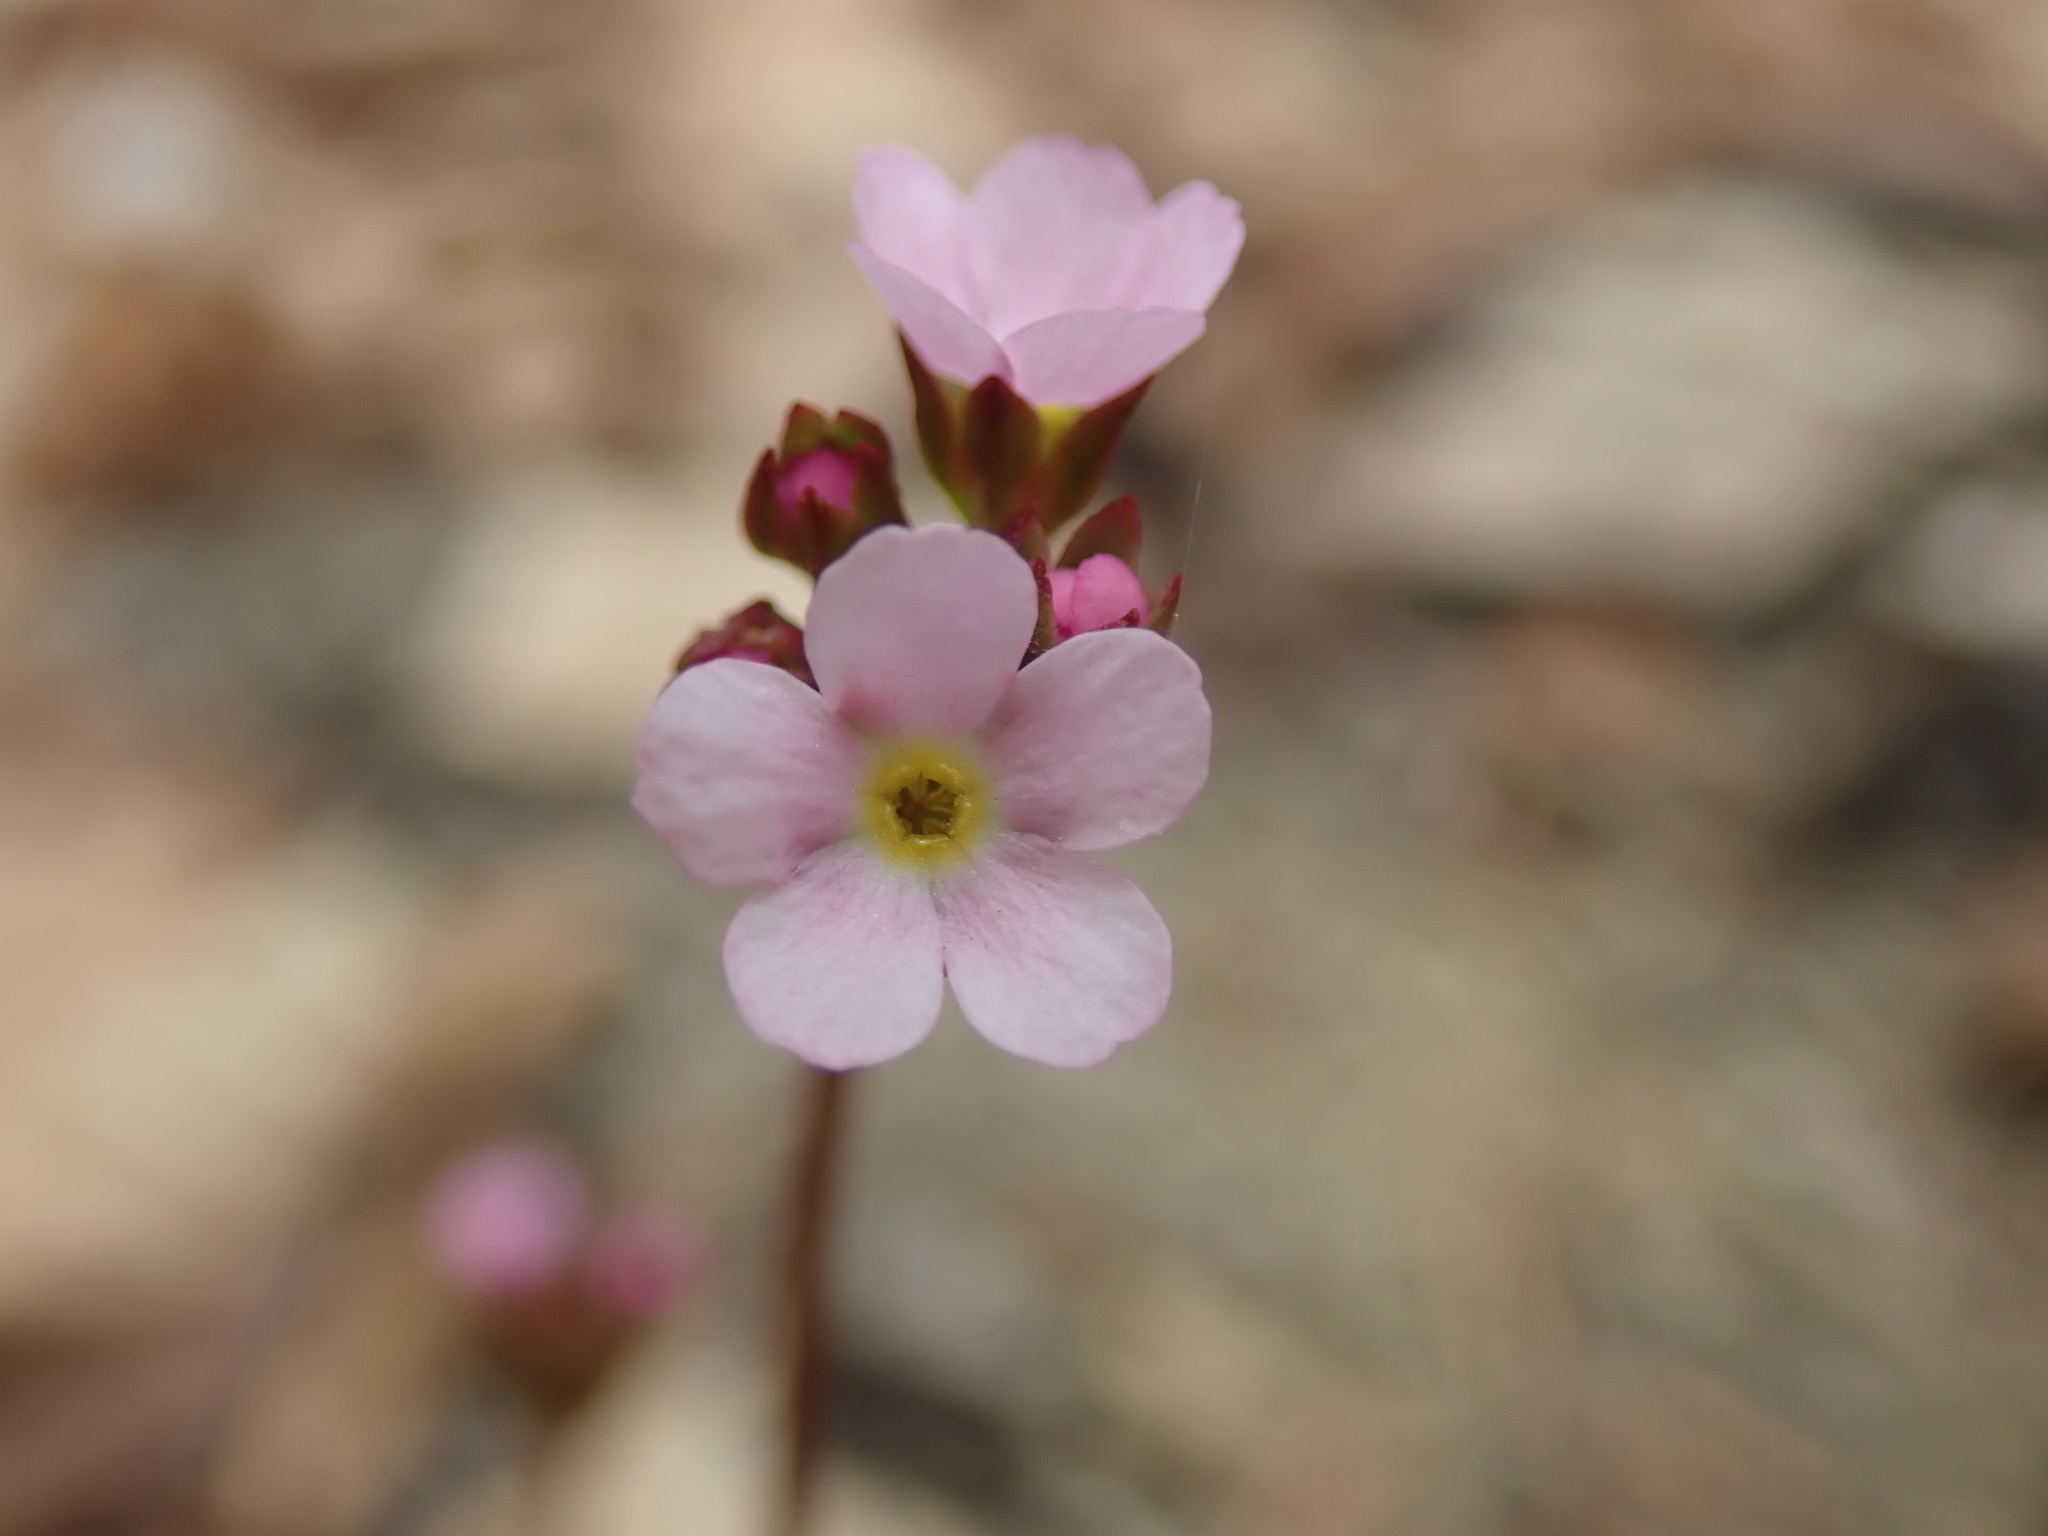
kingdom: Plantae
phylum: Tracheophyta
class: Magnoliopsida
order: Ericales
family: Primulaceae
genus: Androsace
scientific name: Androsace chaixii
